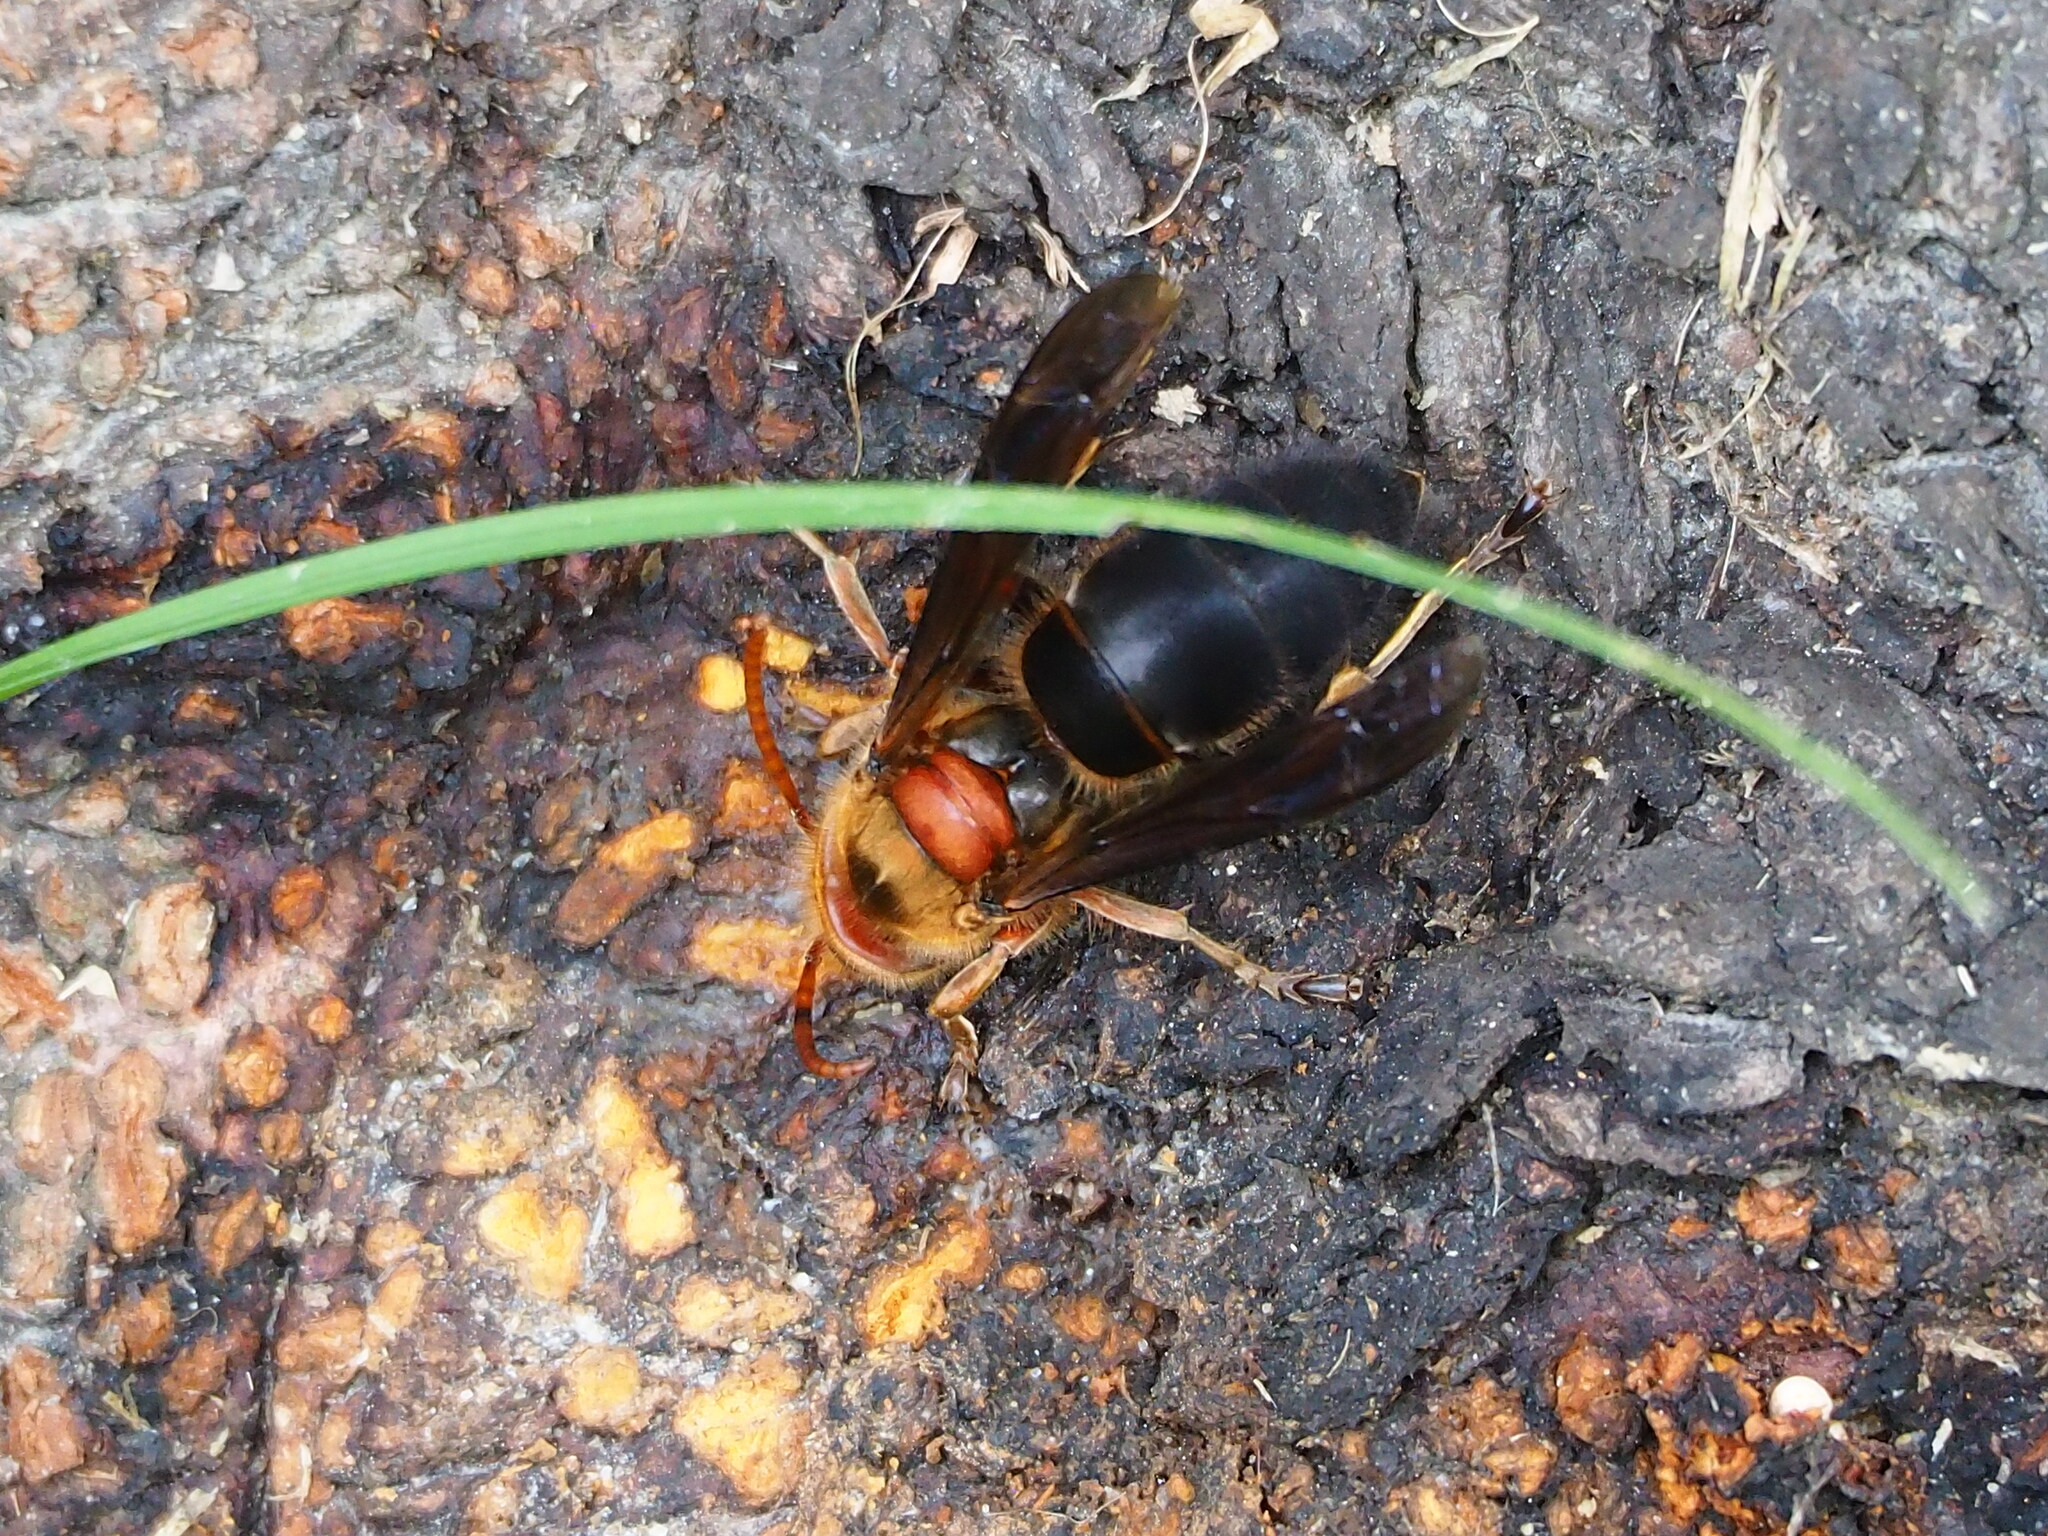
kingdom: Animalia
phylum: Arthropoda
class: Insecta
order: Hymenoptera
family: Vespidae
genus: Vespa
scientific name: Vespa basalis
